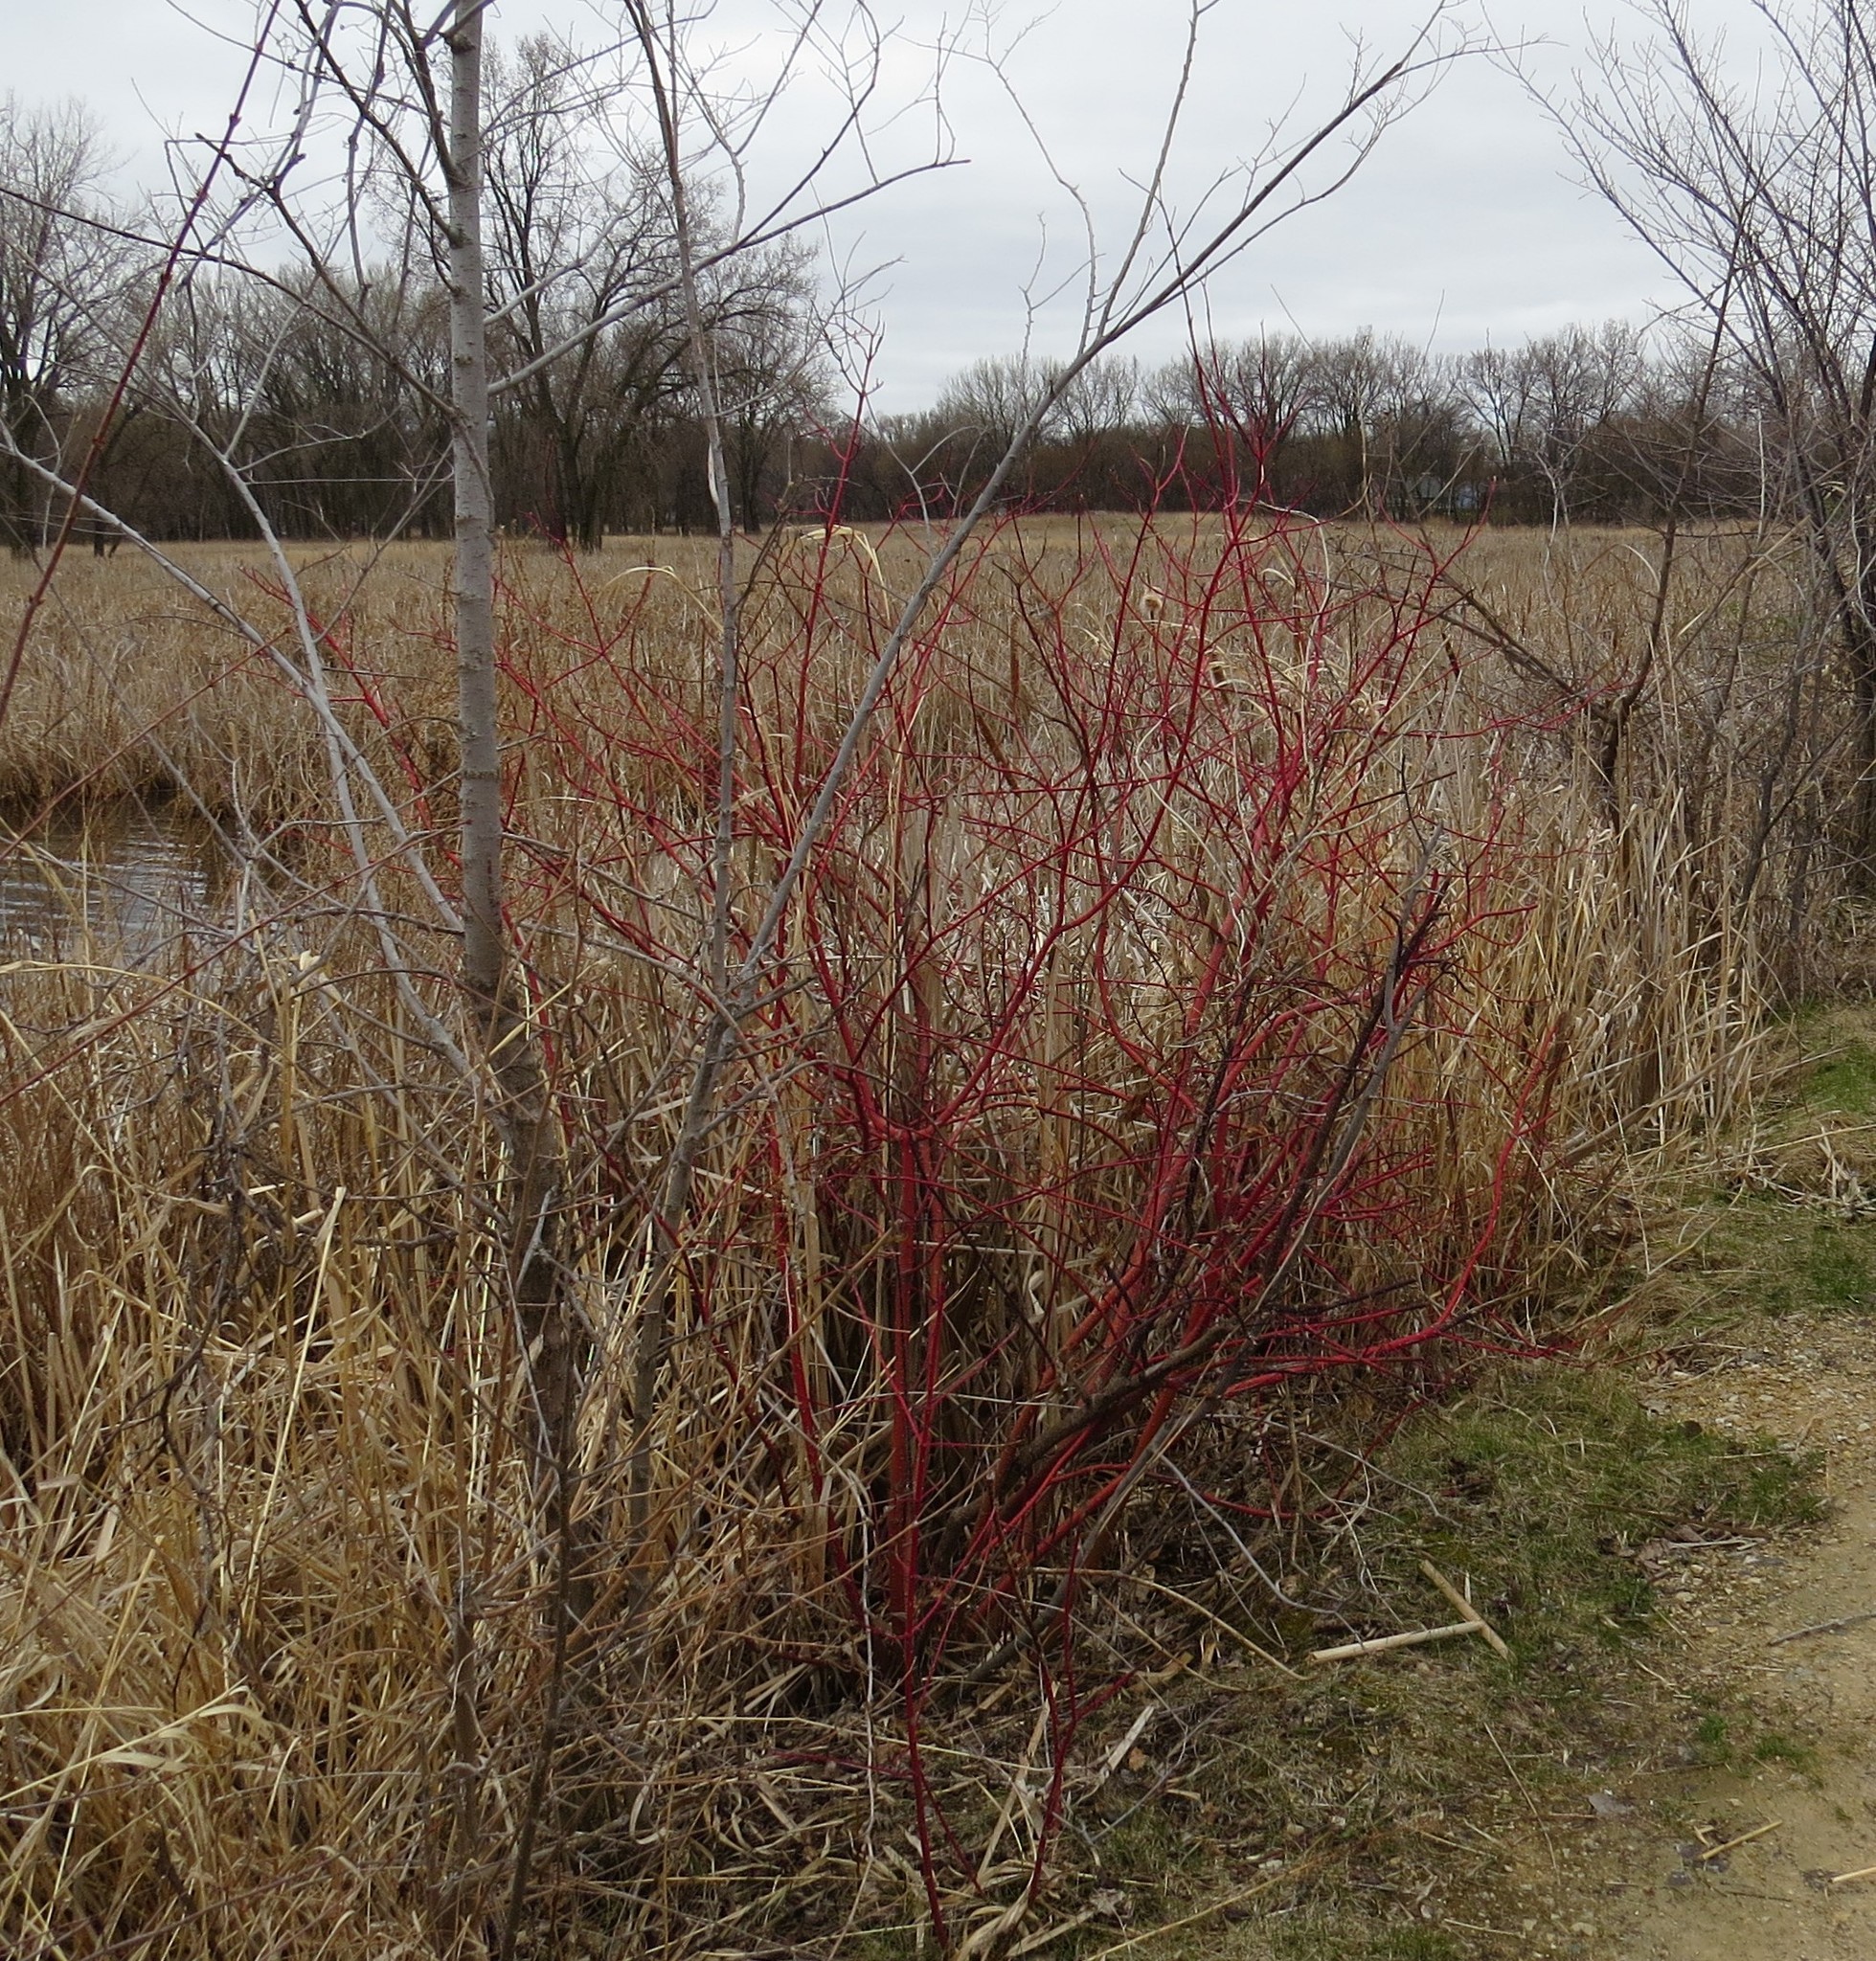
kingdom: Plantae
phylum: Tracheophyta
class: Magnoliopsida
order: Cornales
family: Cornaceae
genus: Cornus
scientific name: Cornus sericea
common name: Red-osier dogwood
